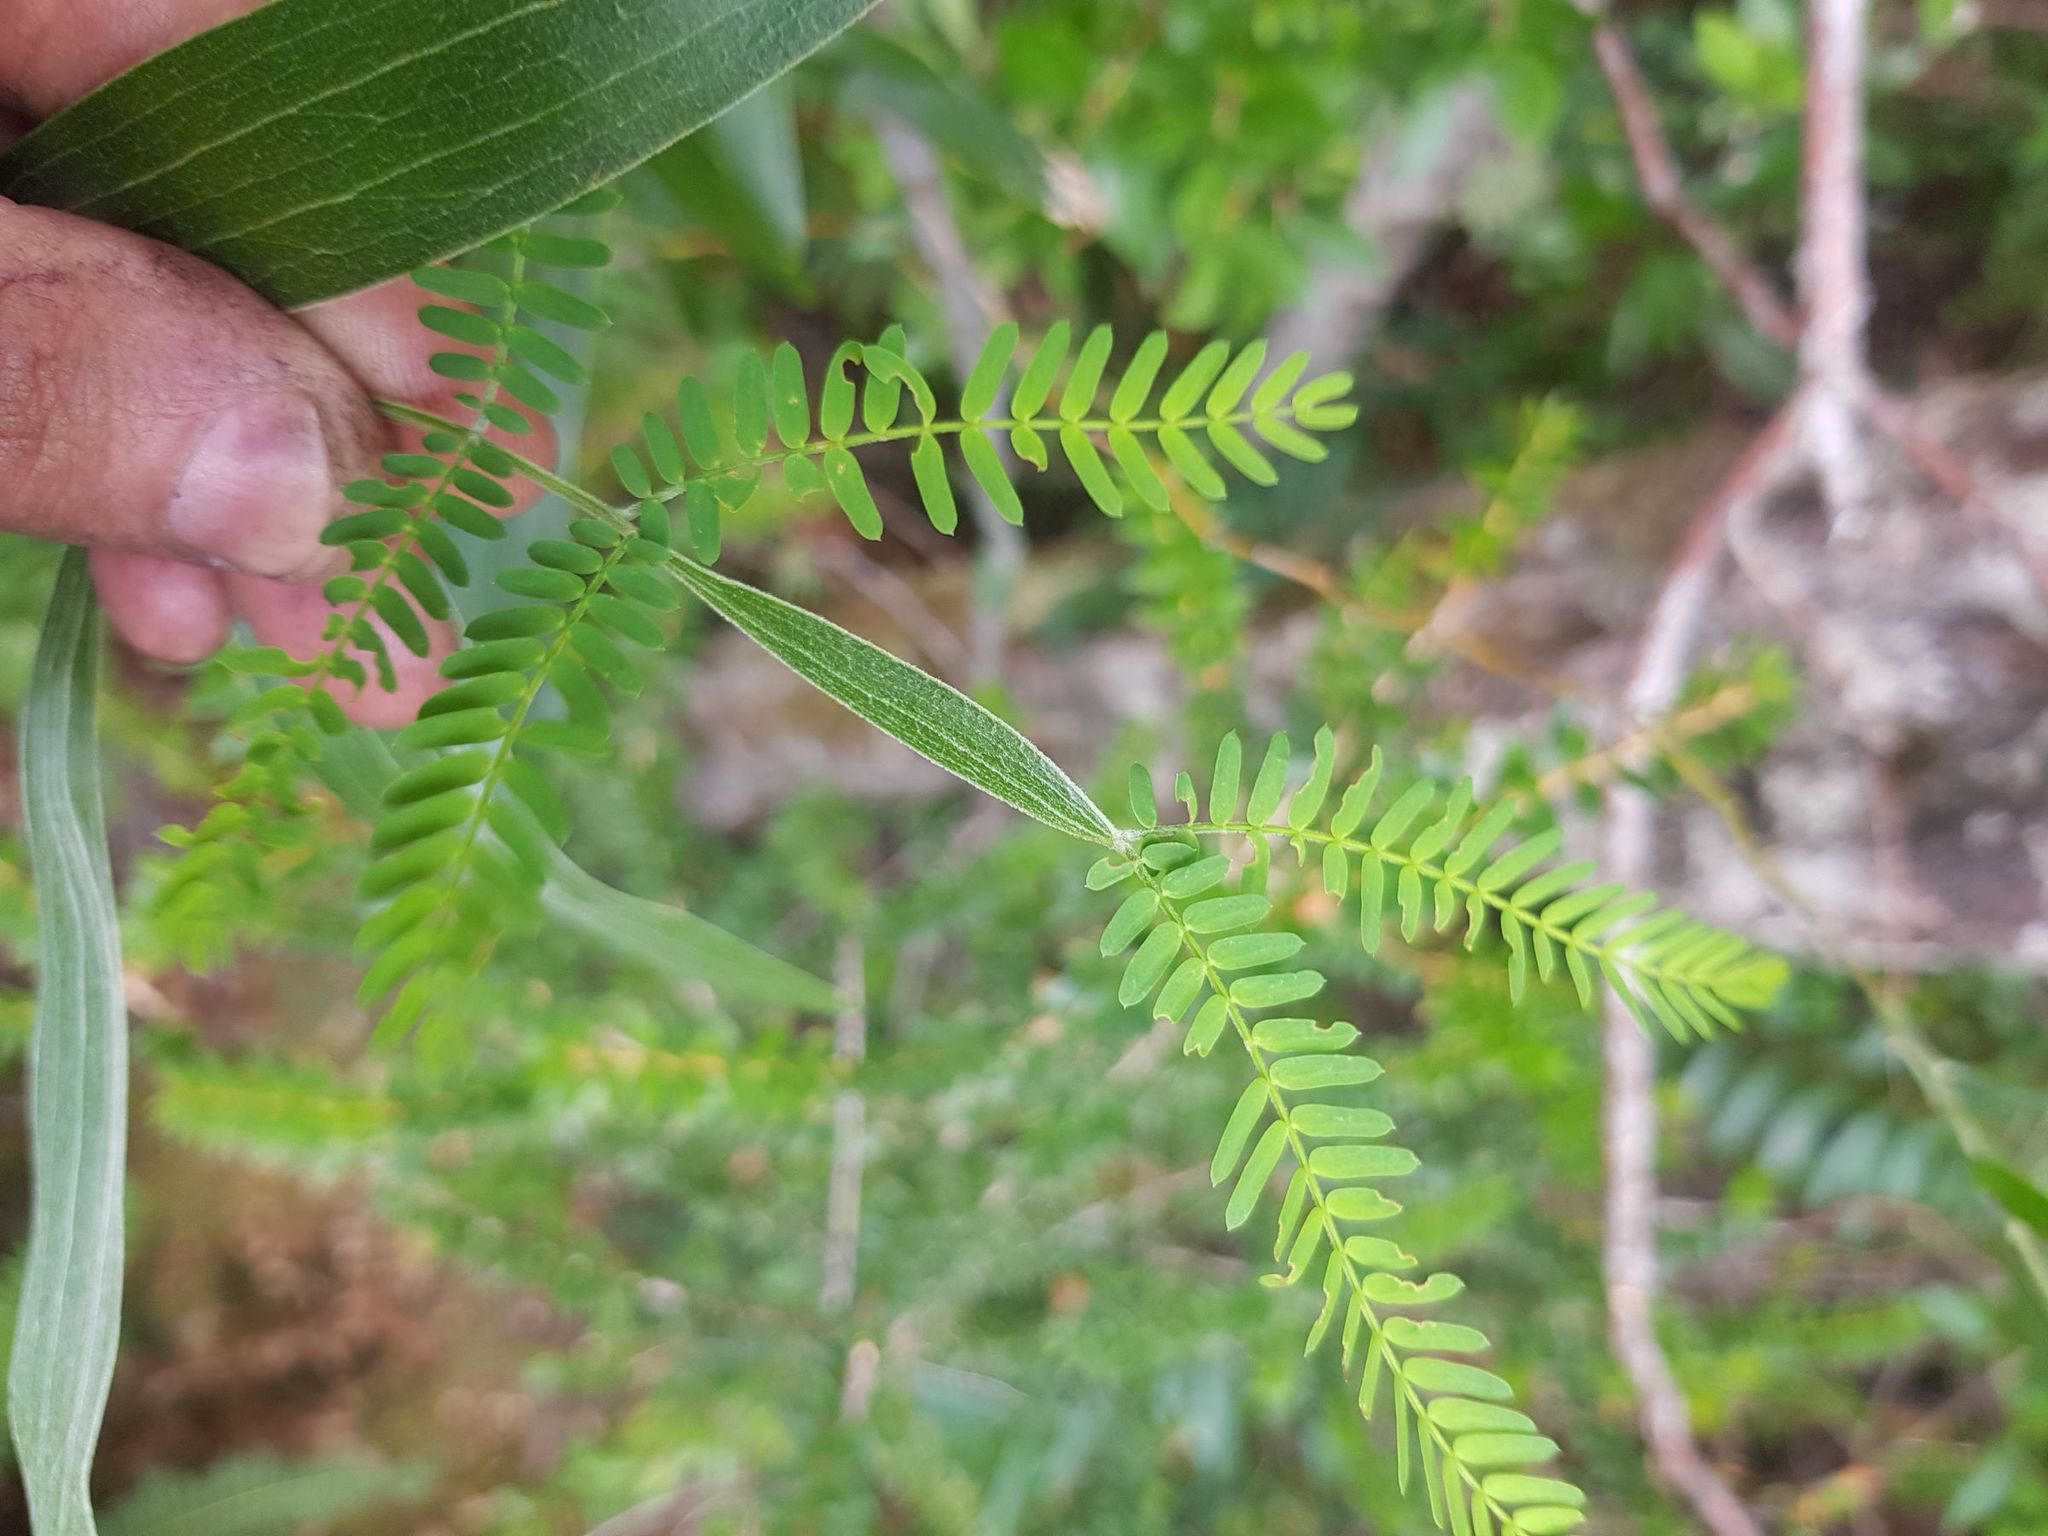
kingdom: Plantae
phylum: Tracheophyta
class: Magnoliopsida
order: Fabales
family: Fabaceae
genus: Acacia
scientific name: Acacia melanoxylon
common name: Blackwood
